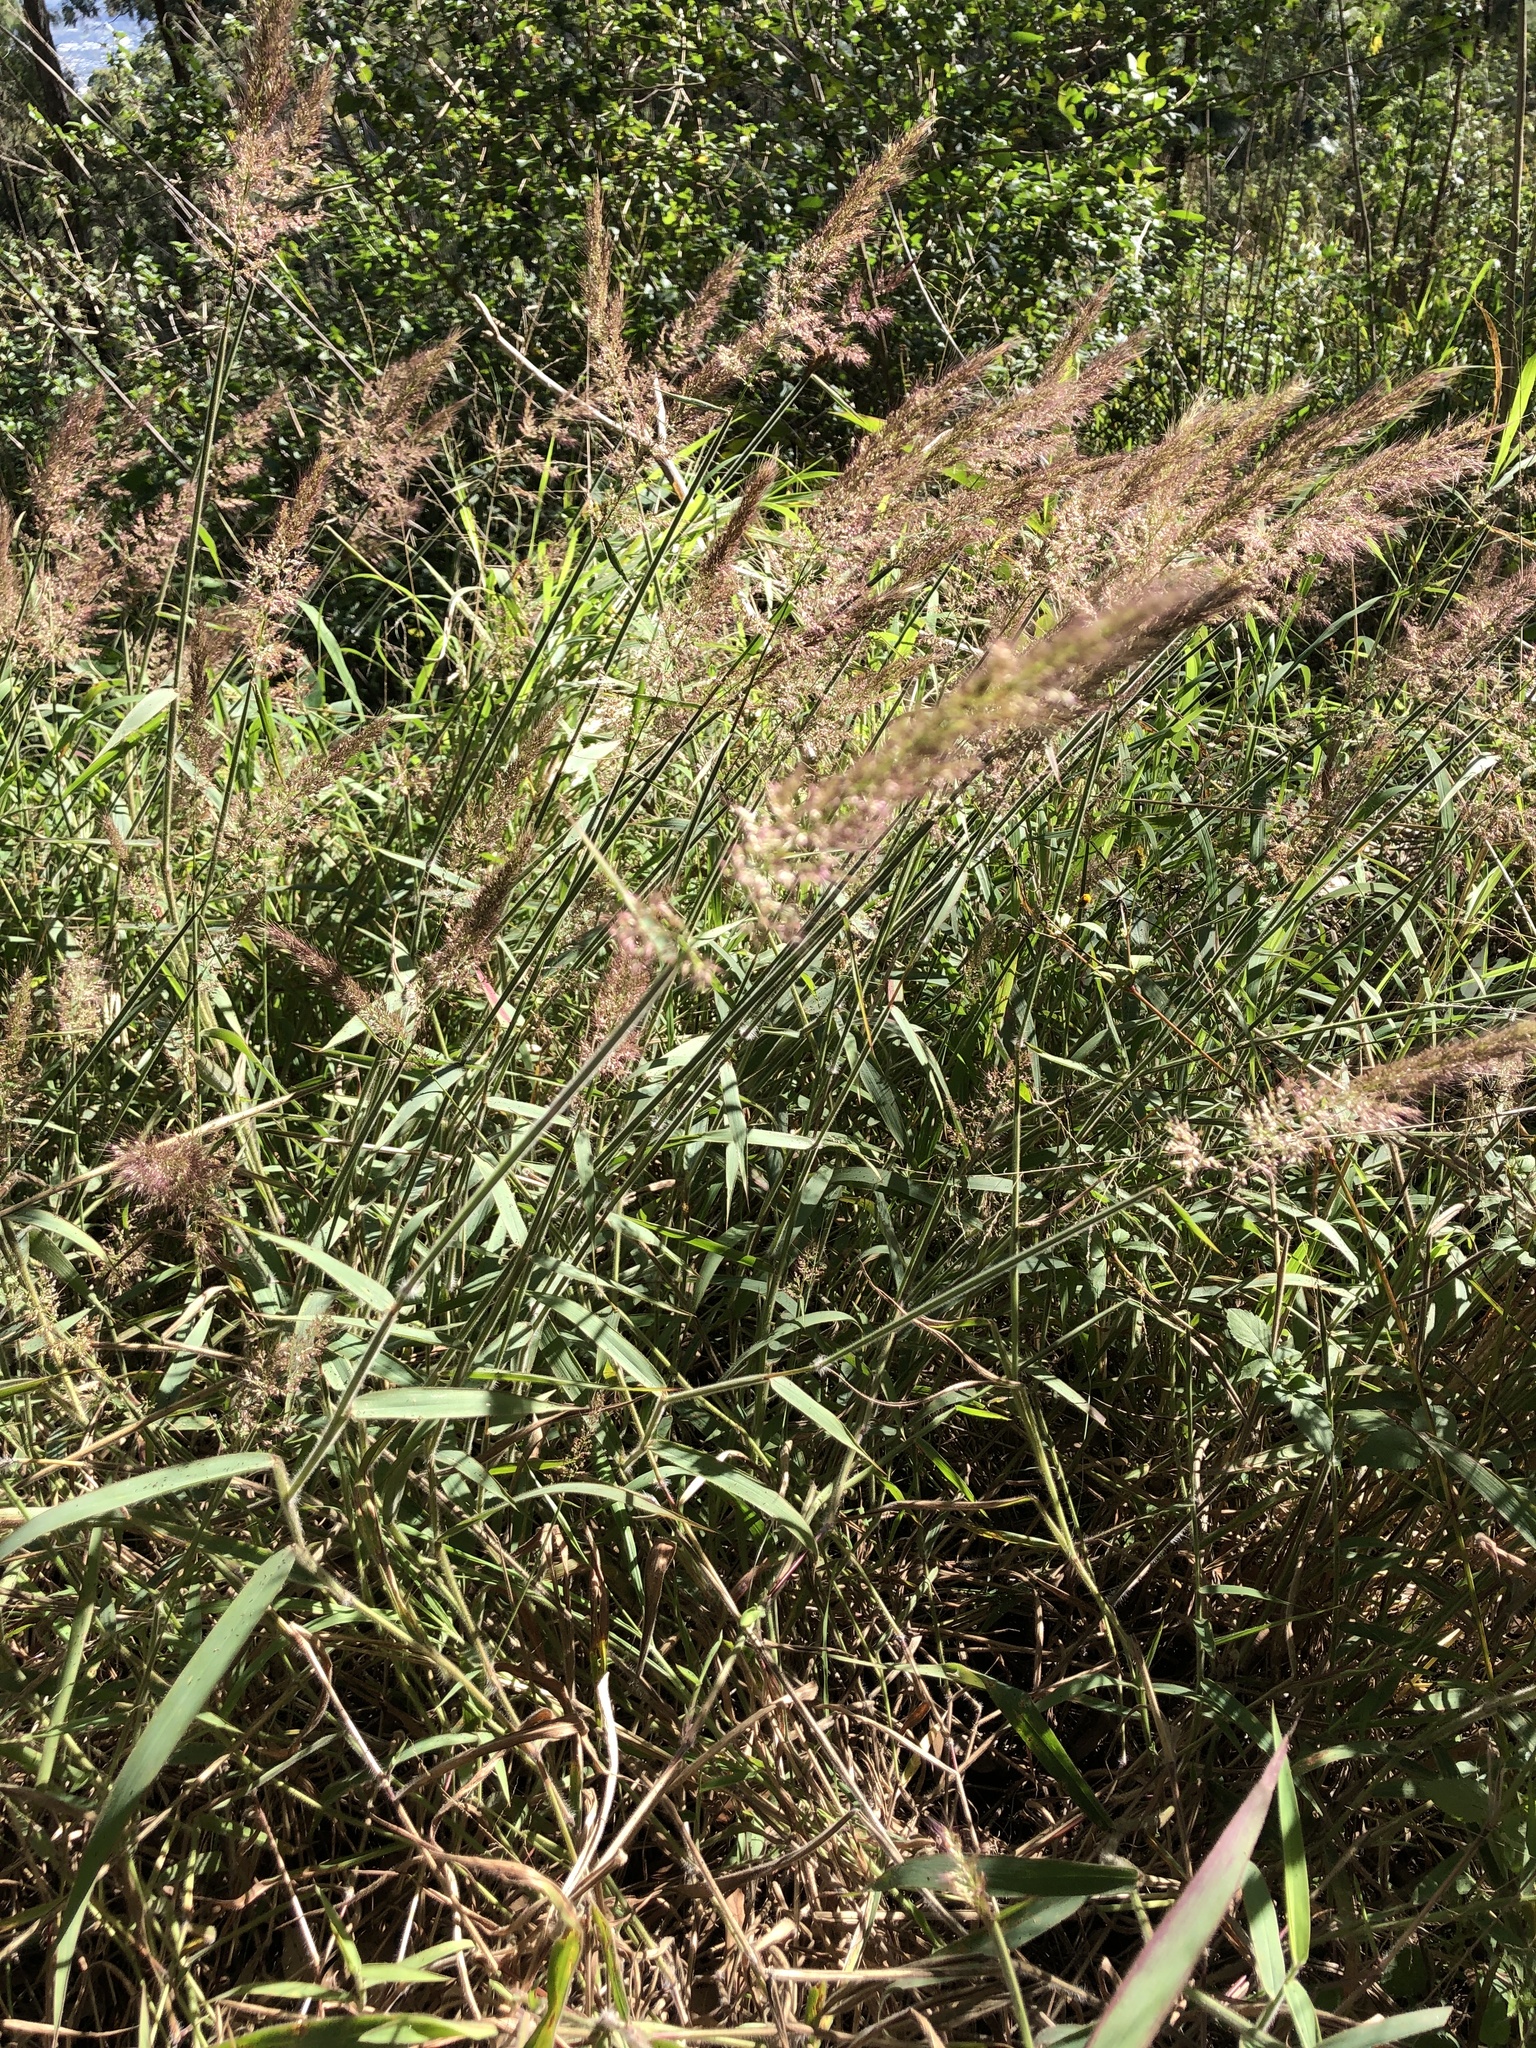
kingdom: Plantae
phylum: Tracheophyta
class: Liliopsida
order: Poales
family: Poaceae
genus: Melinis
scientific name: Melinis minutiflora
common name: Molassesgrass
